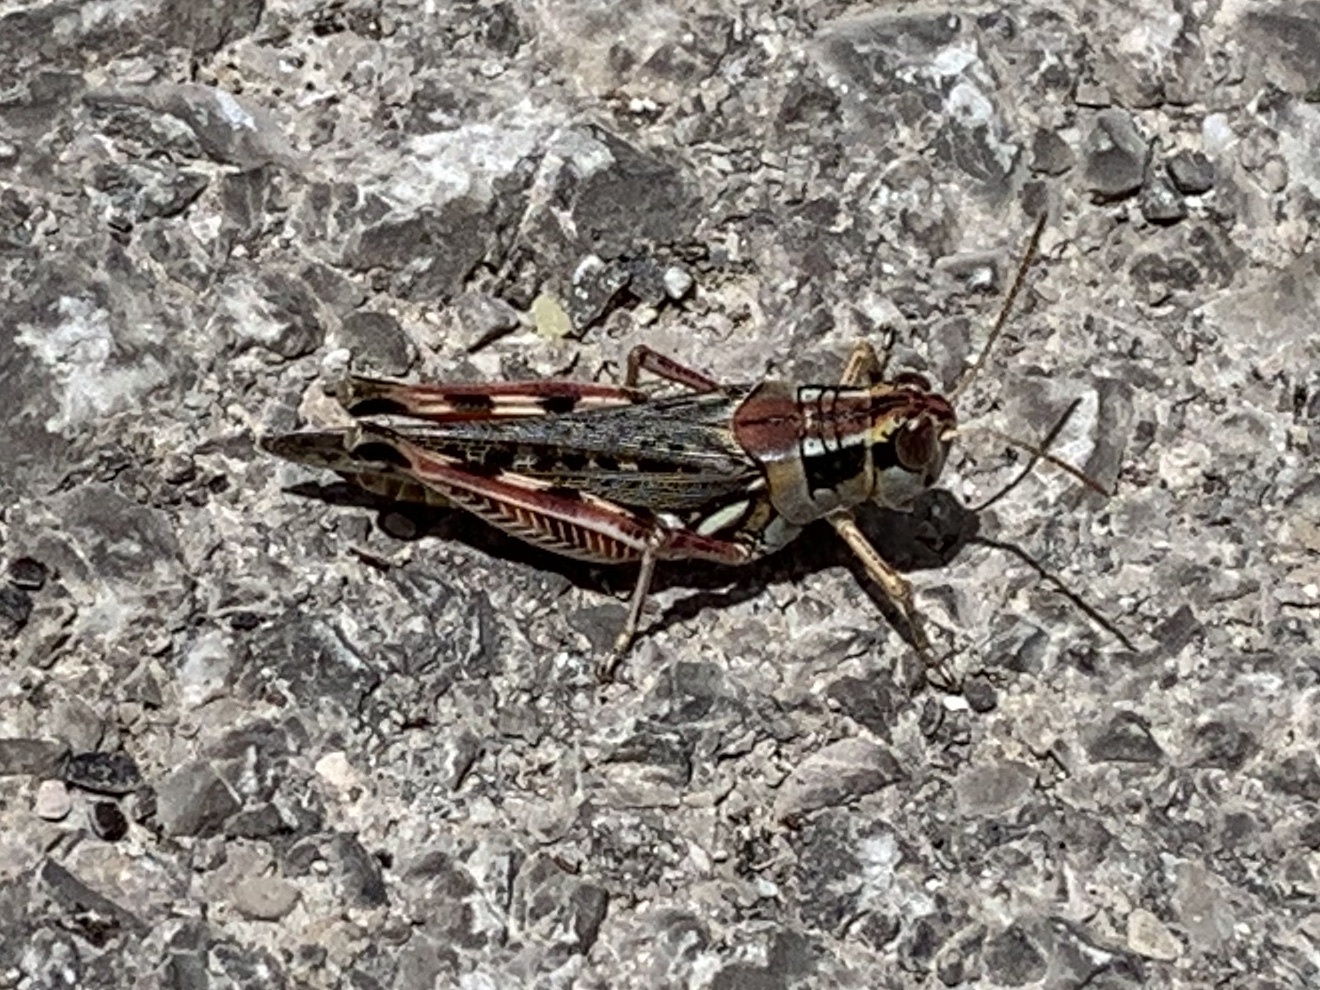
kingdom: Animalia
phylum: Arthropoda
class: Insecta
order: Orthoptera
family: Acrididae
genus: Melanoplus
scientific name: Melanoplus occidentalis
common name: Flabellate grasshopper
